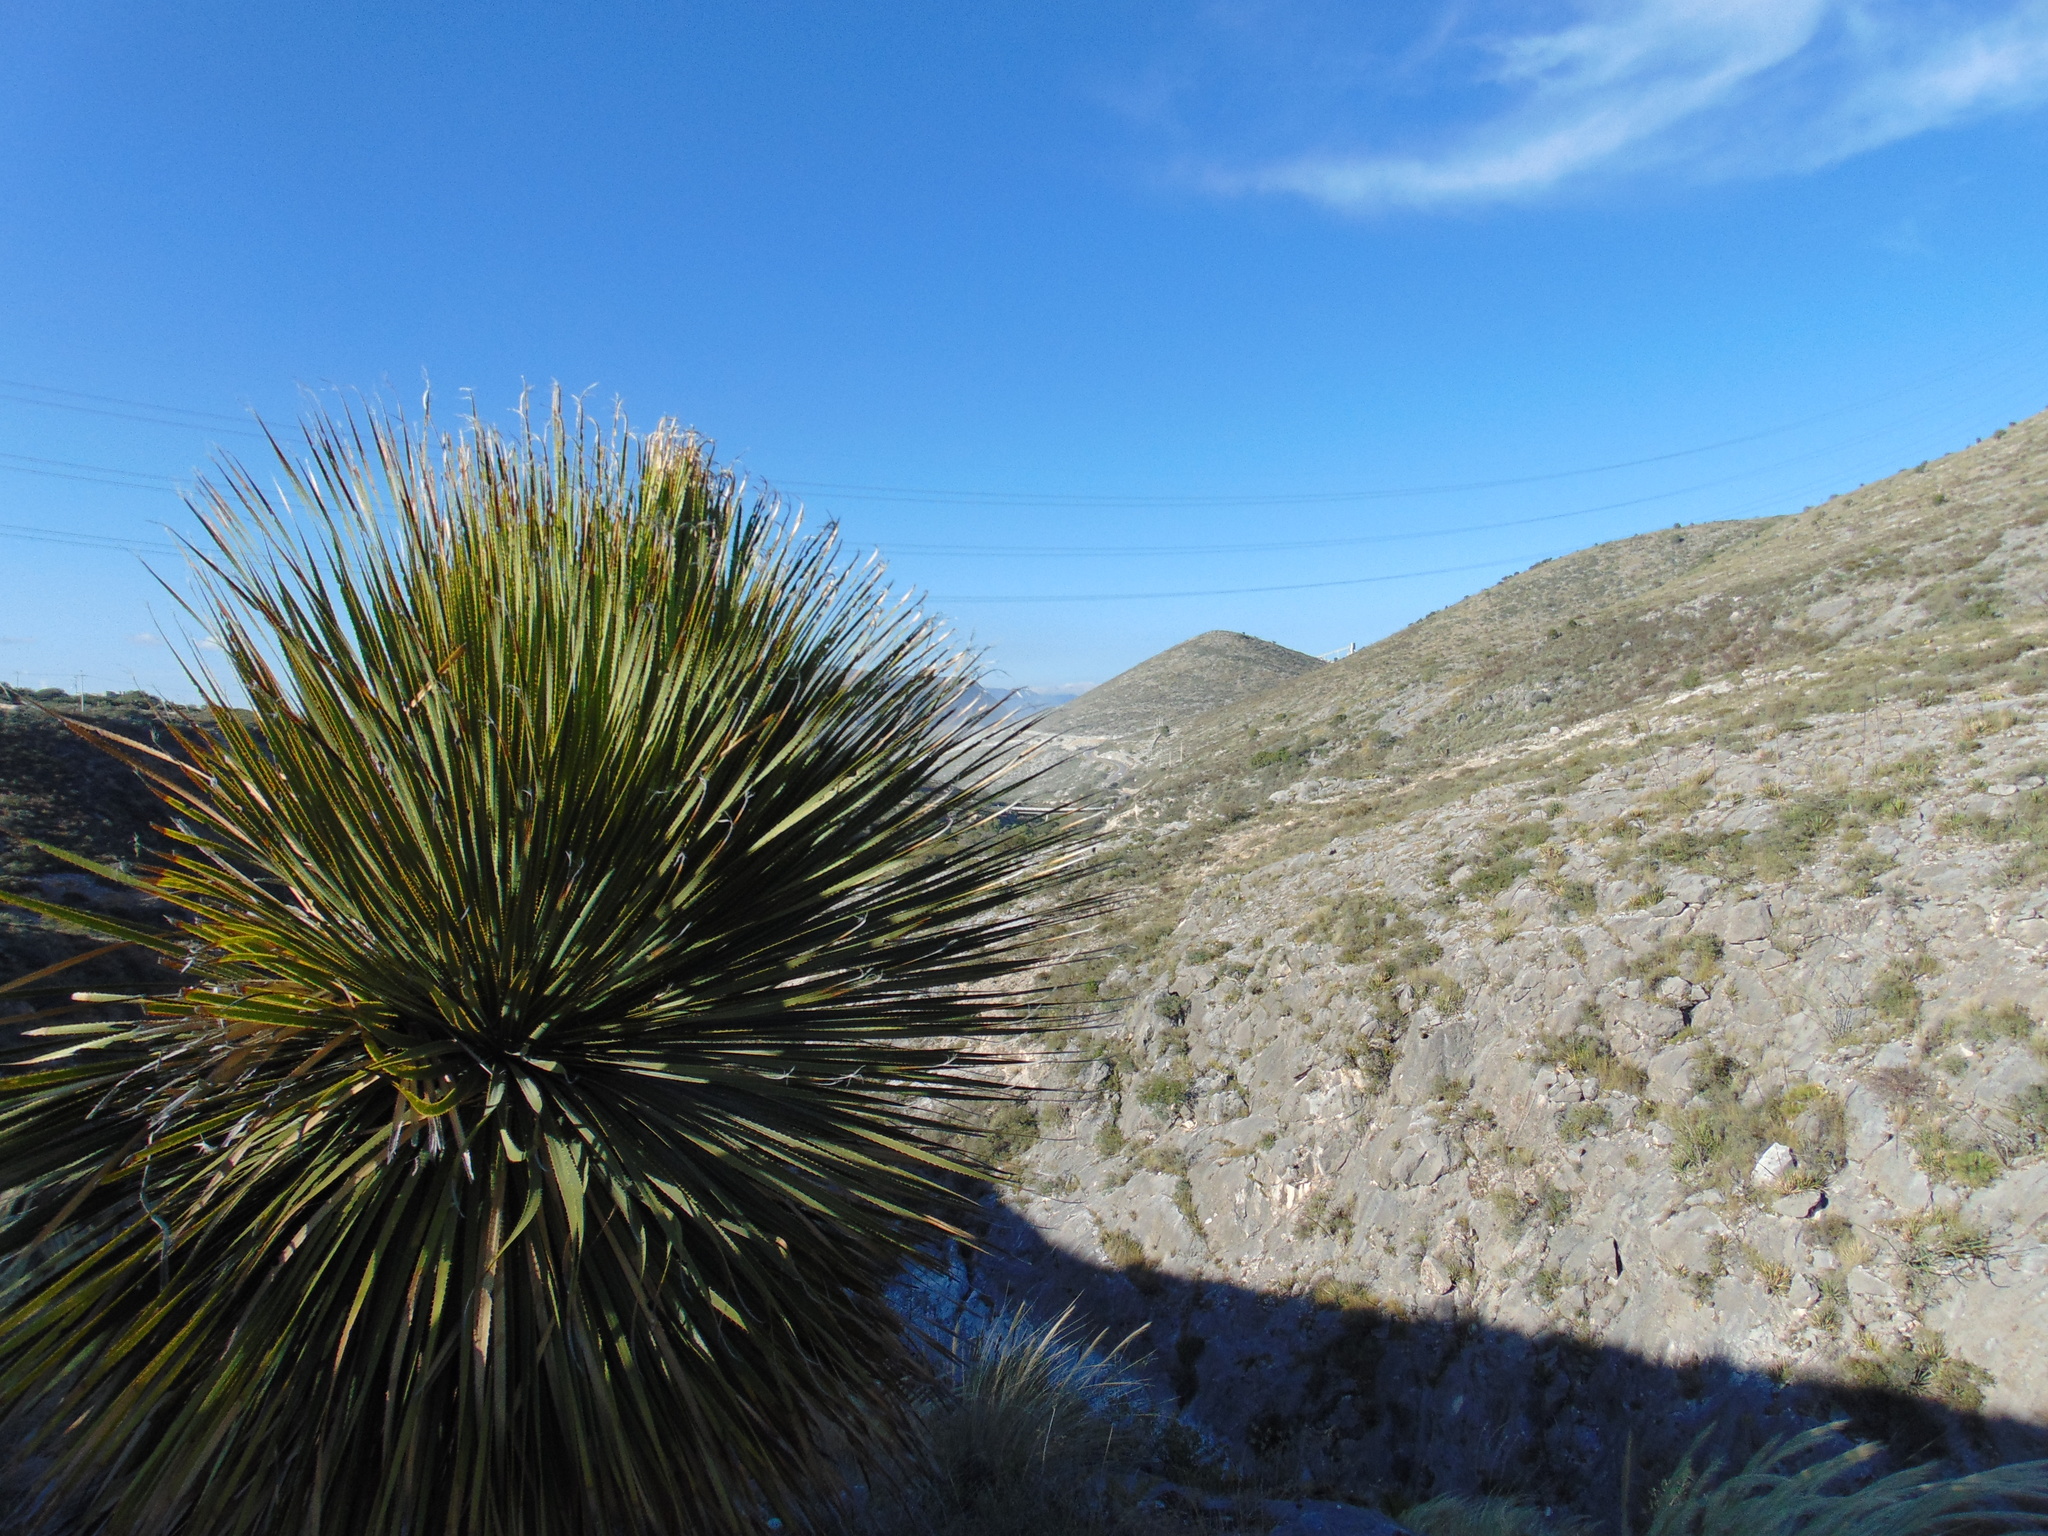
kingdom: Plantae
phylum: Tracheophyta
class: Liliopsida
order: Asparagales
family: Asparagaceae
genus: Dasylirion
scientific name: Dasylirion acrotrichum
